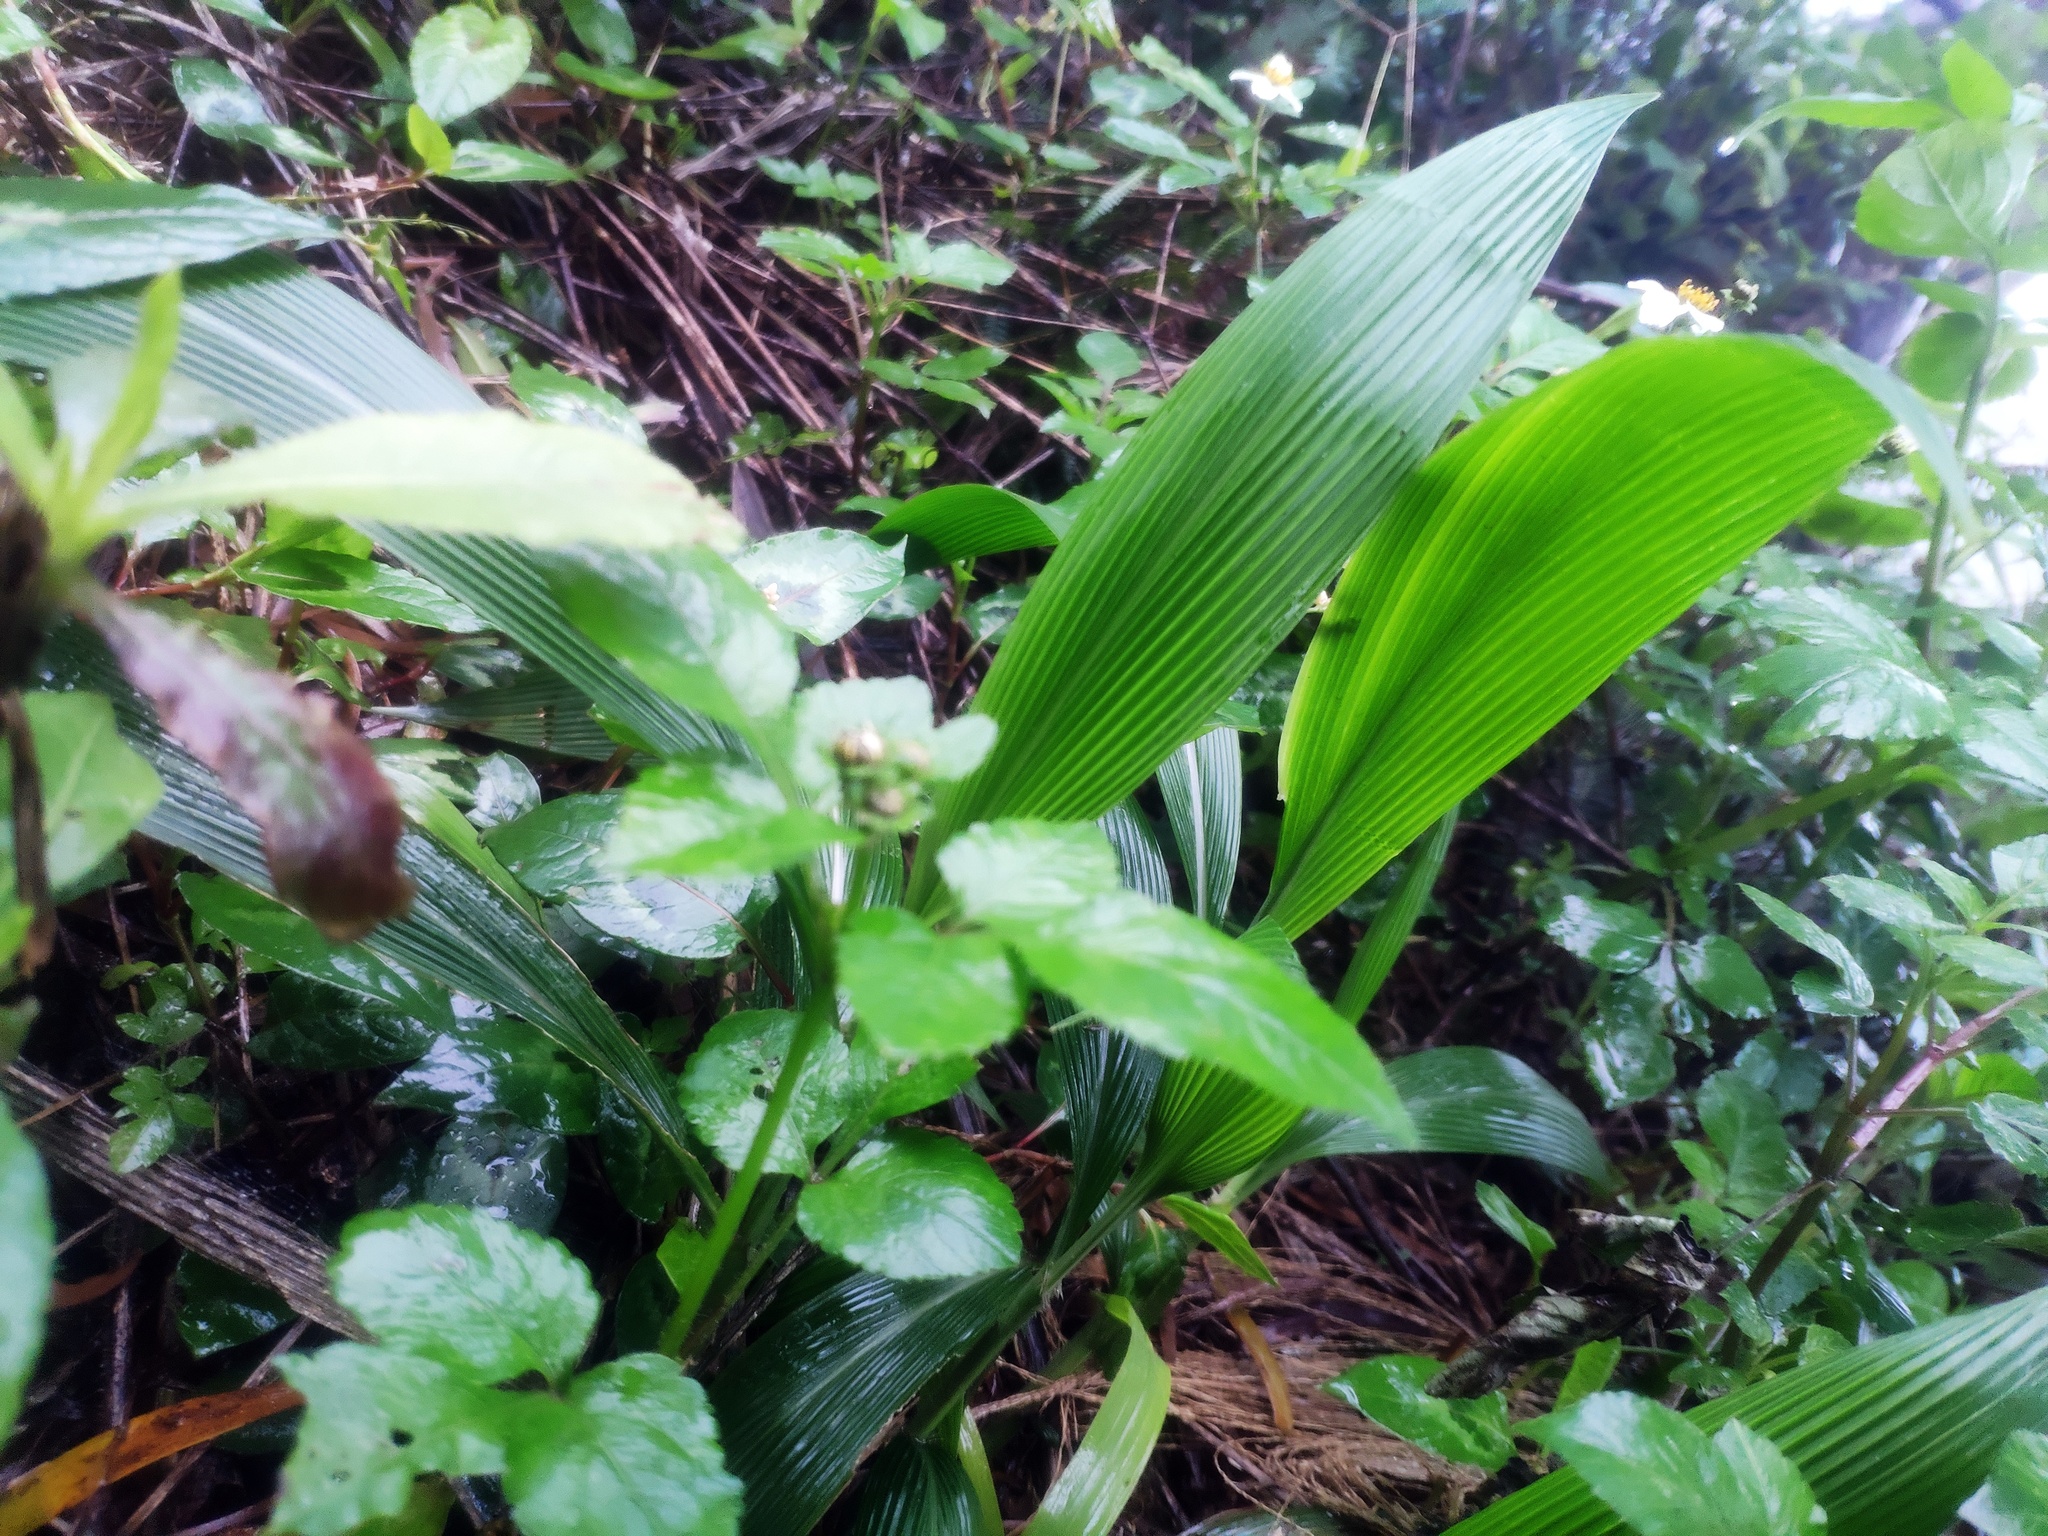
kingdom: Plantae
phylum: Tracheophyta
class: Liliopsida
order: Poales
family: Poaceae
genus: Setaria
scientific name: Setaria palmifolia
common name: Broadleaved bristlegrass
